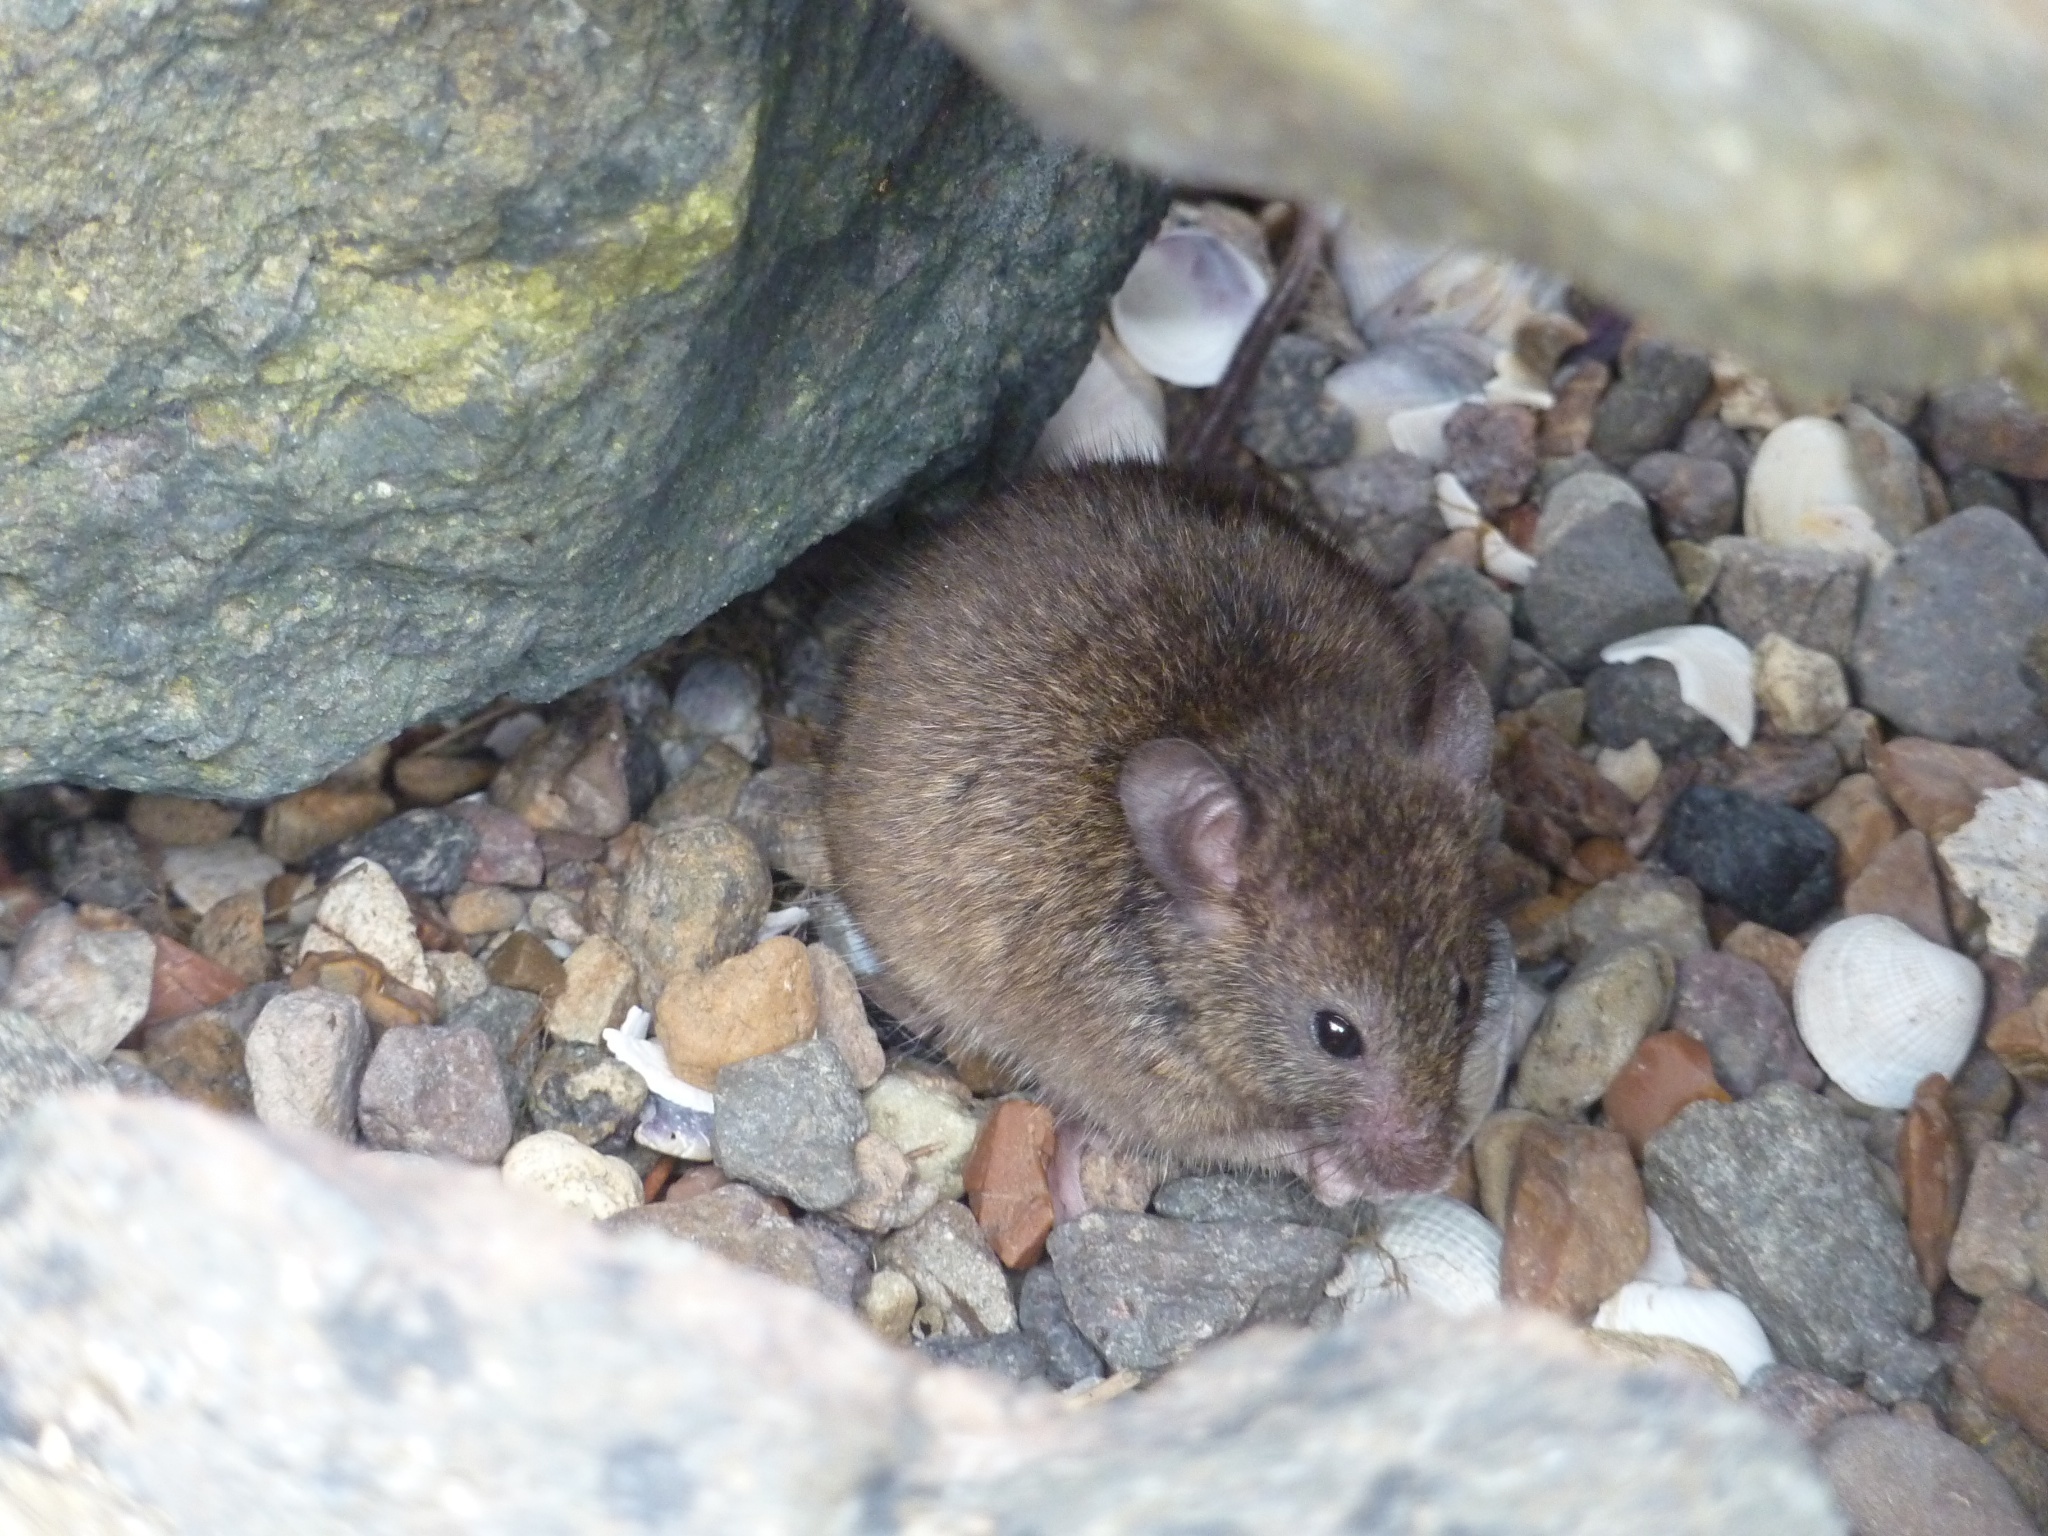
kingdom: Animalia
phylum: Chordata
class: Mammalia
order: Rodentia
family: Muridae
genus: Mus
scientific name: Mus musculus
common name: House mouse
